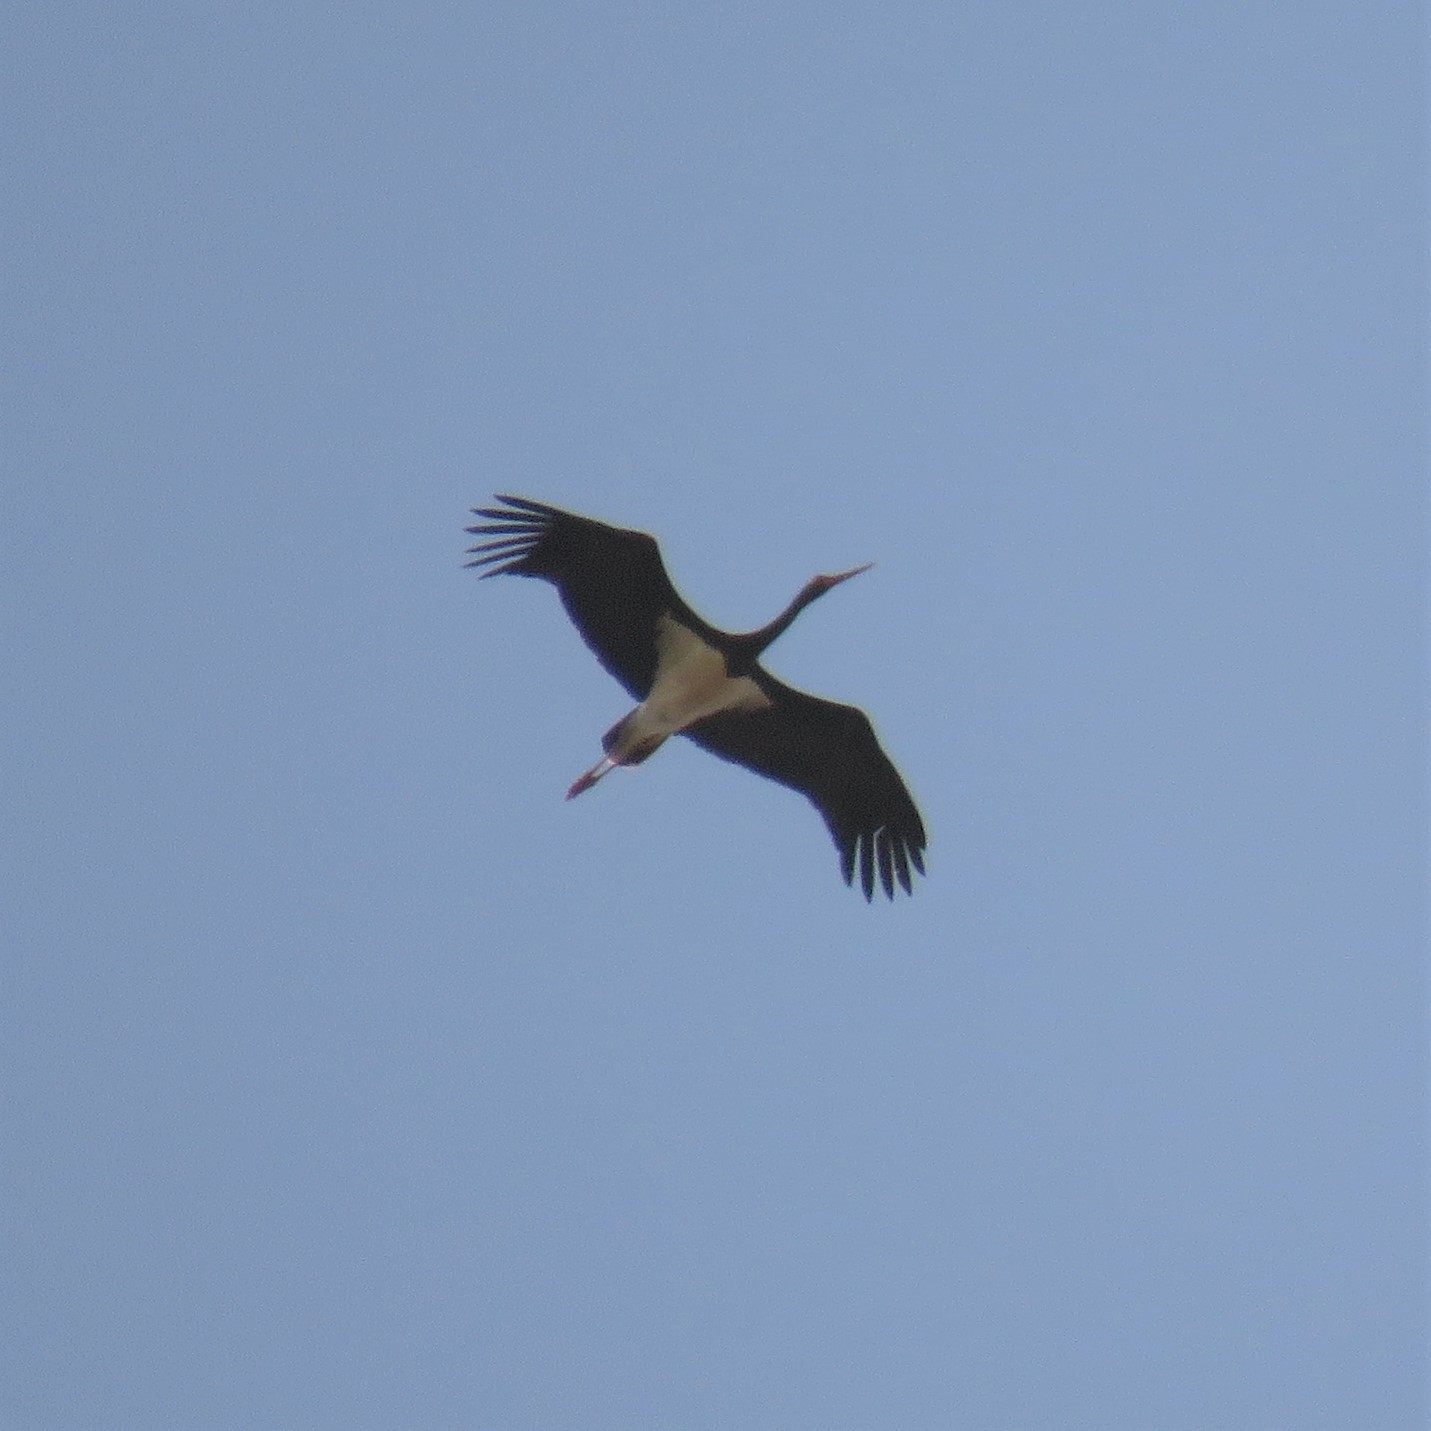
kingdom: Animalia
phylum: Chordata
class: Aves
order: Ciconiiformes
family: Ciconiidae
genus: Ciconia
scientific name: Ciconia nigra
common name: Black stork
